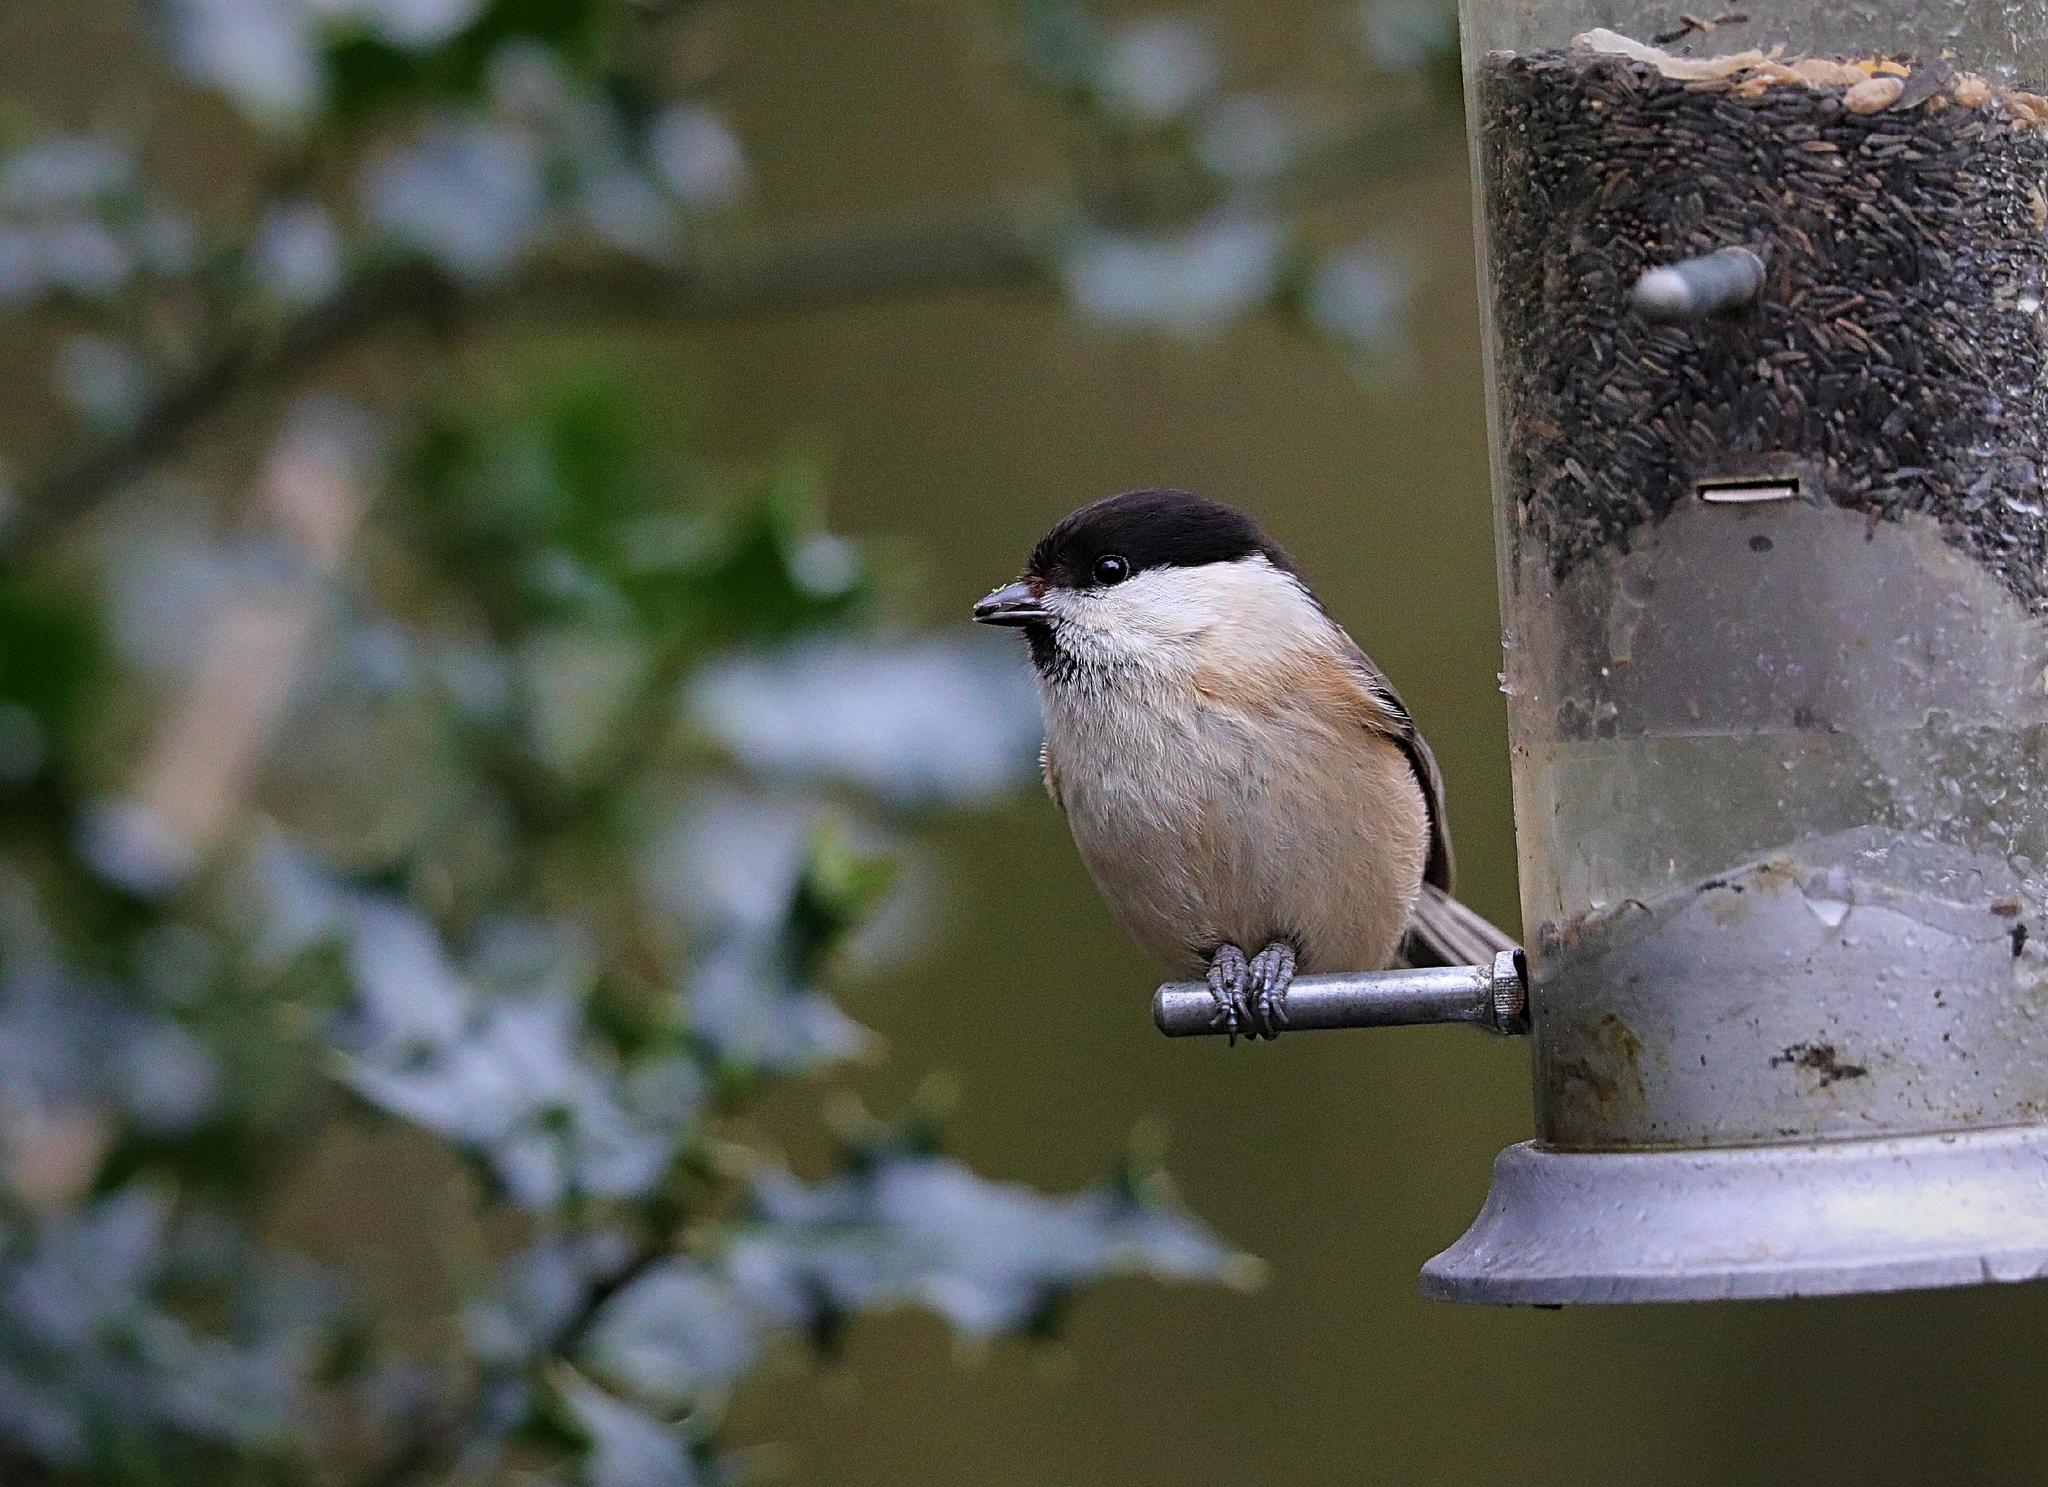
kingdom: Animalia
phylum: Chordata
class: Aves
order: Passeriformes
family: Paridae
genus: Poecile
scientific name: Poecile montanus
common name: Willow tit
